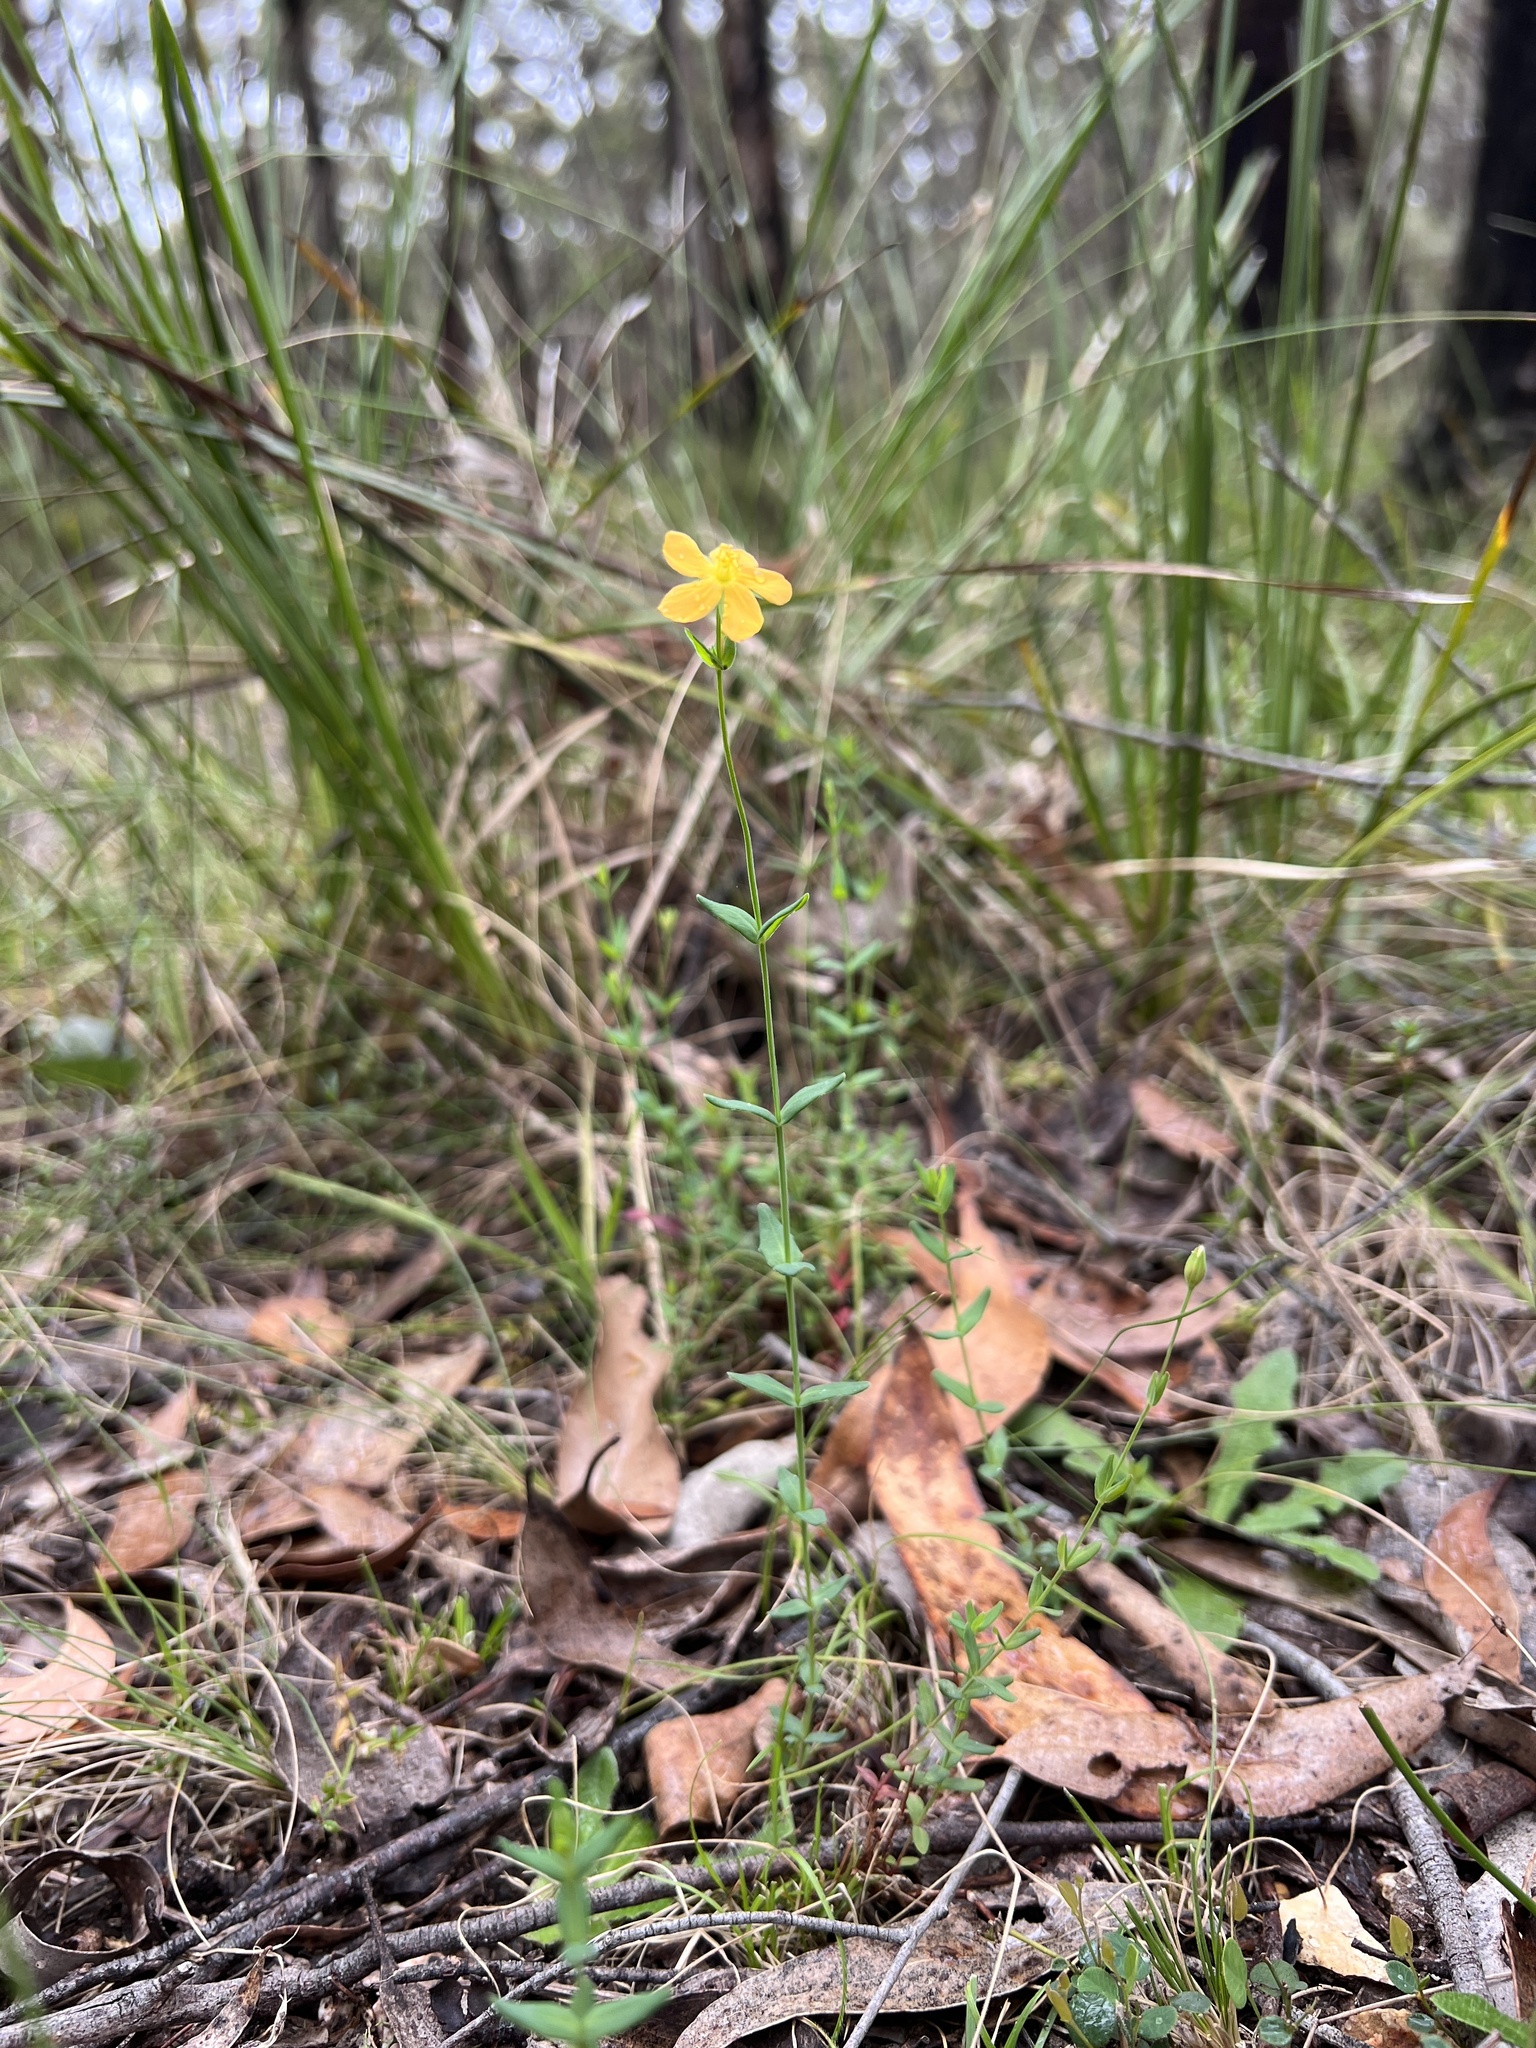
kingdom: Plantae
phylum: Tracheophyta
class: Magnoliopsida
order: Malpighiales
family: Hypericaceae
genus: Hypericum
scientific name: Hypericum gramineum
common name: Grassy st. johnswort
